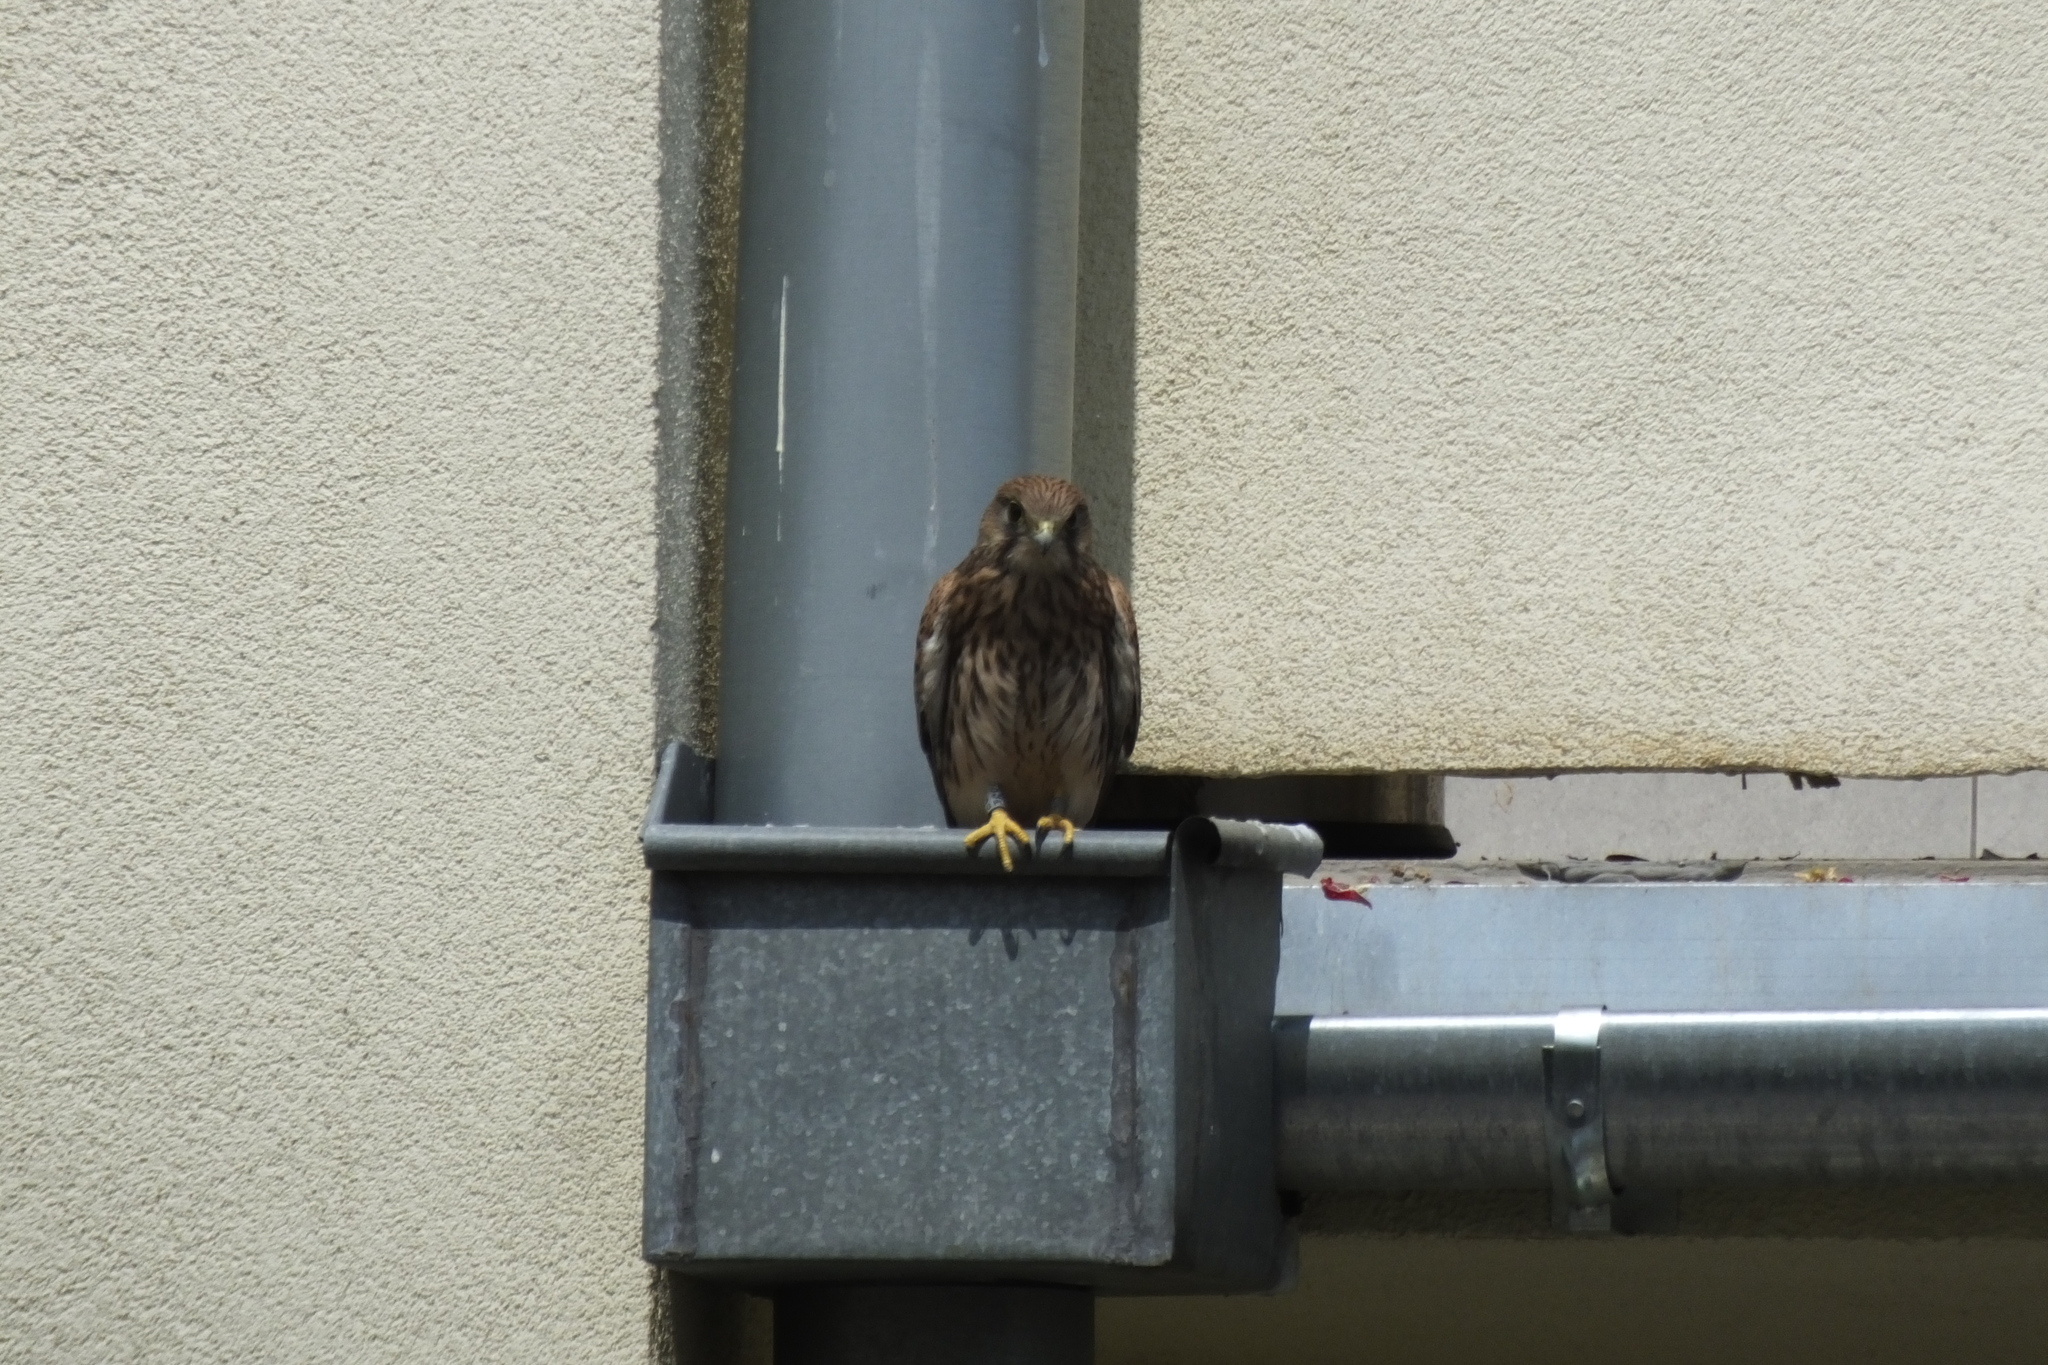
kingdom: Animalia
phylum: Chordata
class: Aves
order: Falconiformes
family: Falconidae
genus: Falco
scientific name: Falco tinnunculus
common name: Common kestrel
